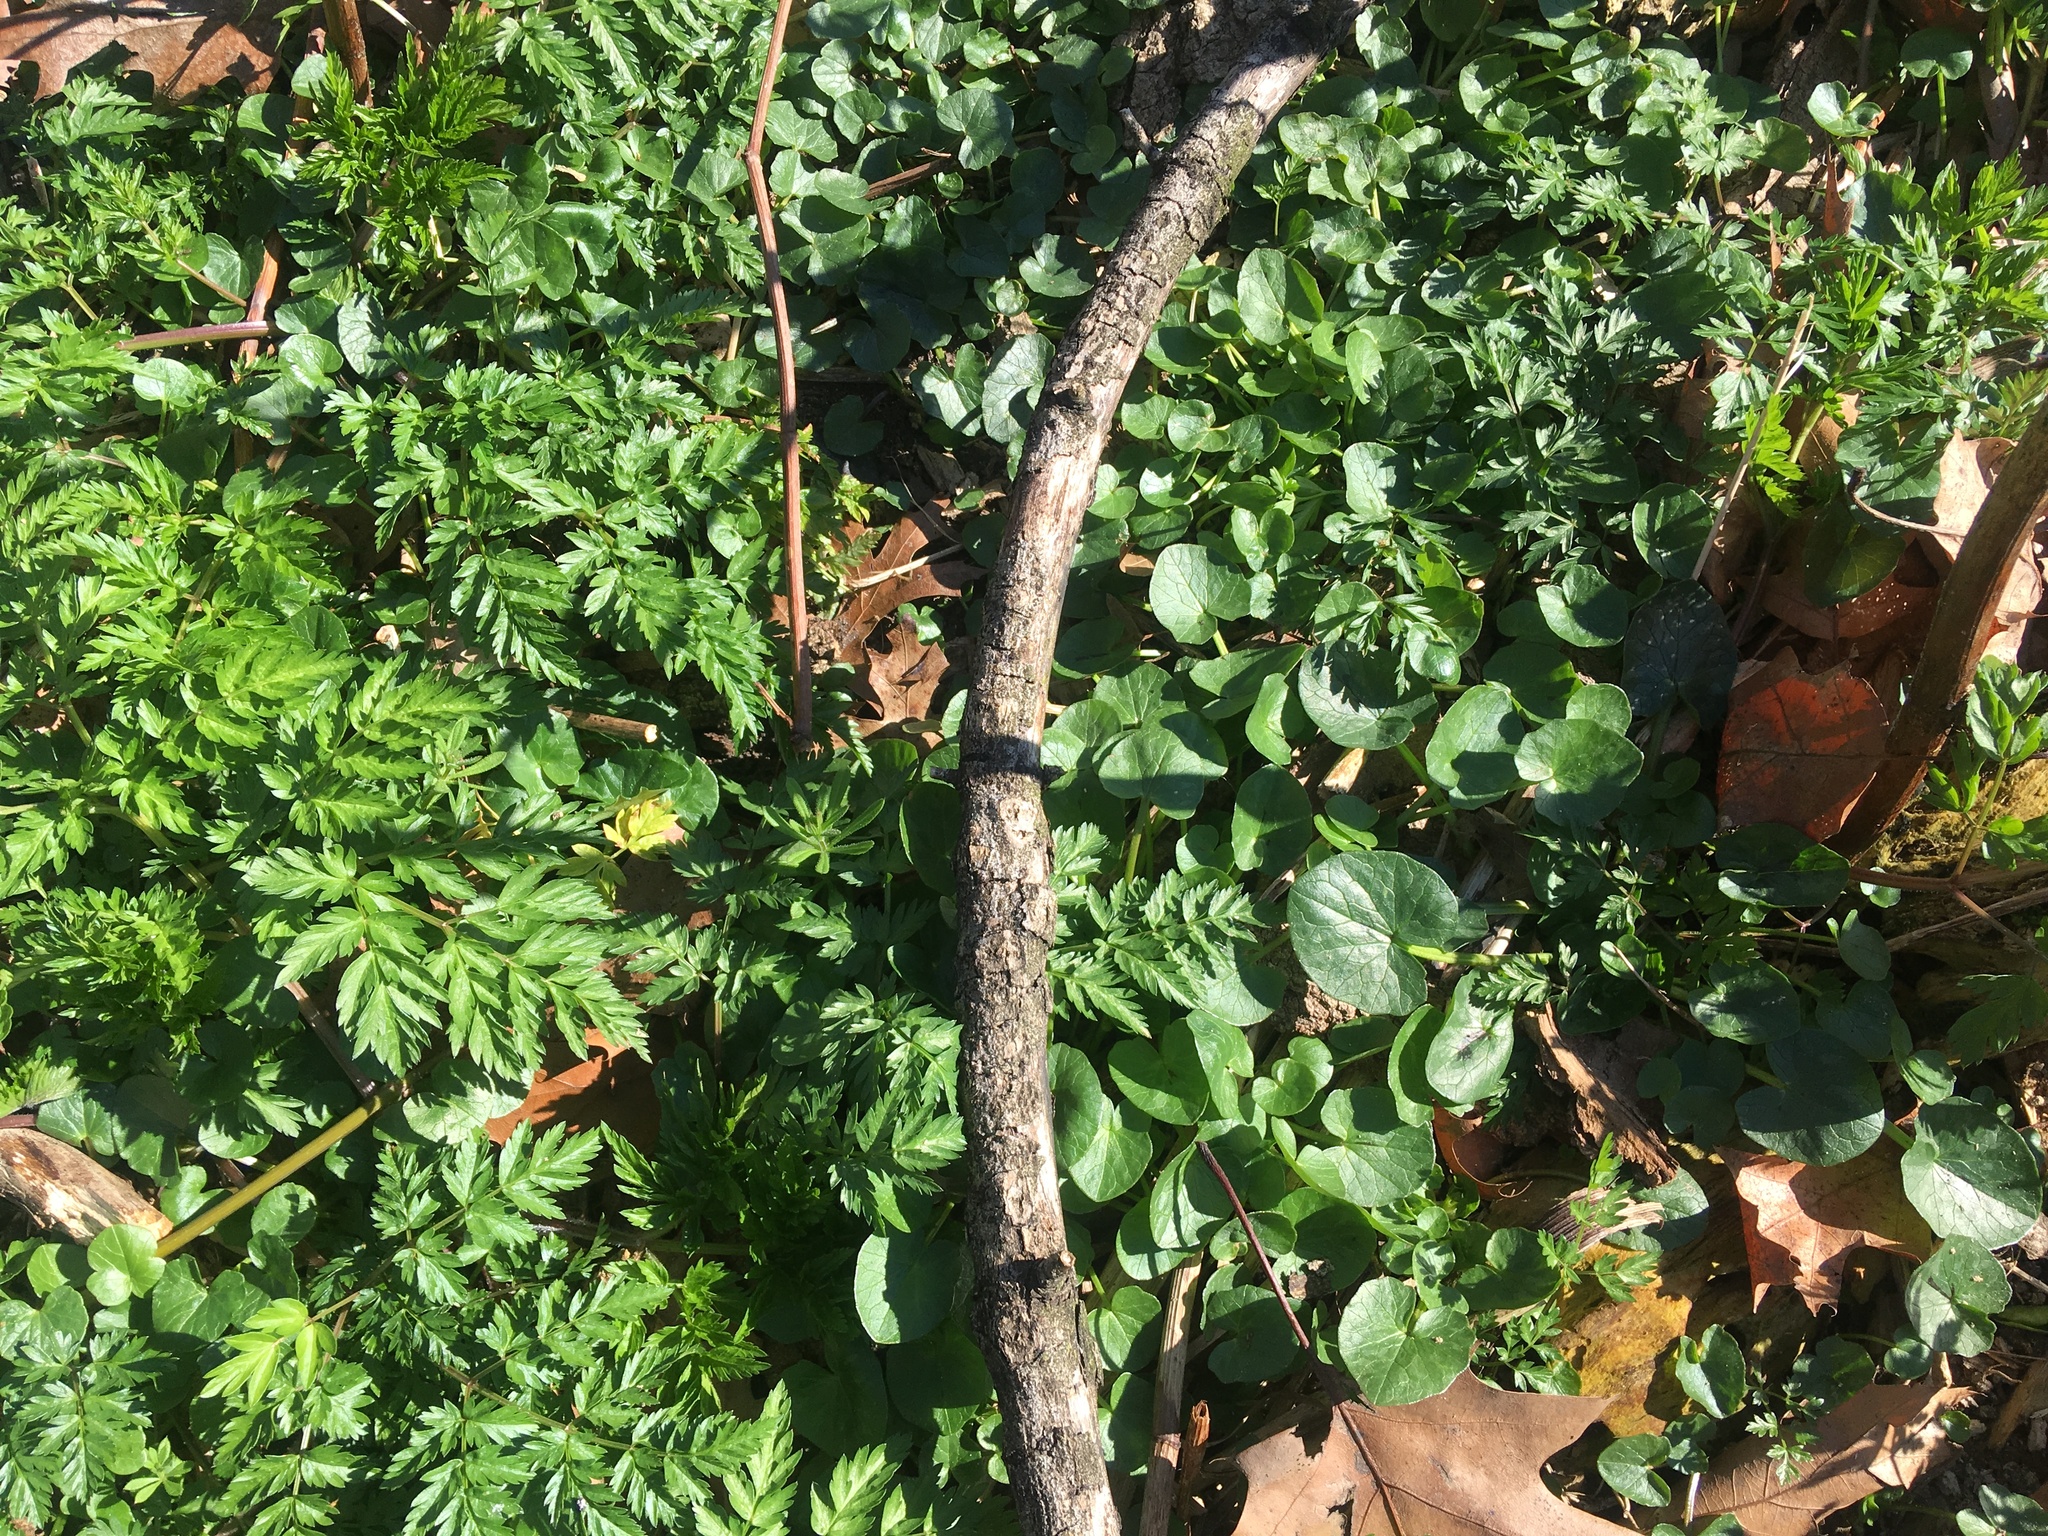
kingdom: Plantae
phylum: Tracheophyta
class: Magnoliopsida
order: Ranunculales
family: Ranunculaceae
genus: Ficaria
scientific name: Ficaria verna
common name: Lesser celandine
